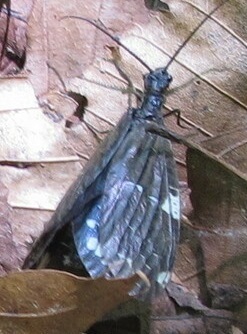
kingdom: Animalia
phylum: Arthropoda
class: Insecta
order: Megaloptera
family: Corydalidae
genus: Nigronia
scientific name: Nigronia serricornis
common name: Serrate dark fishfly
